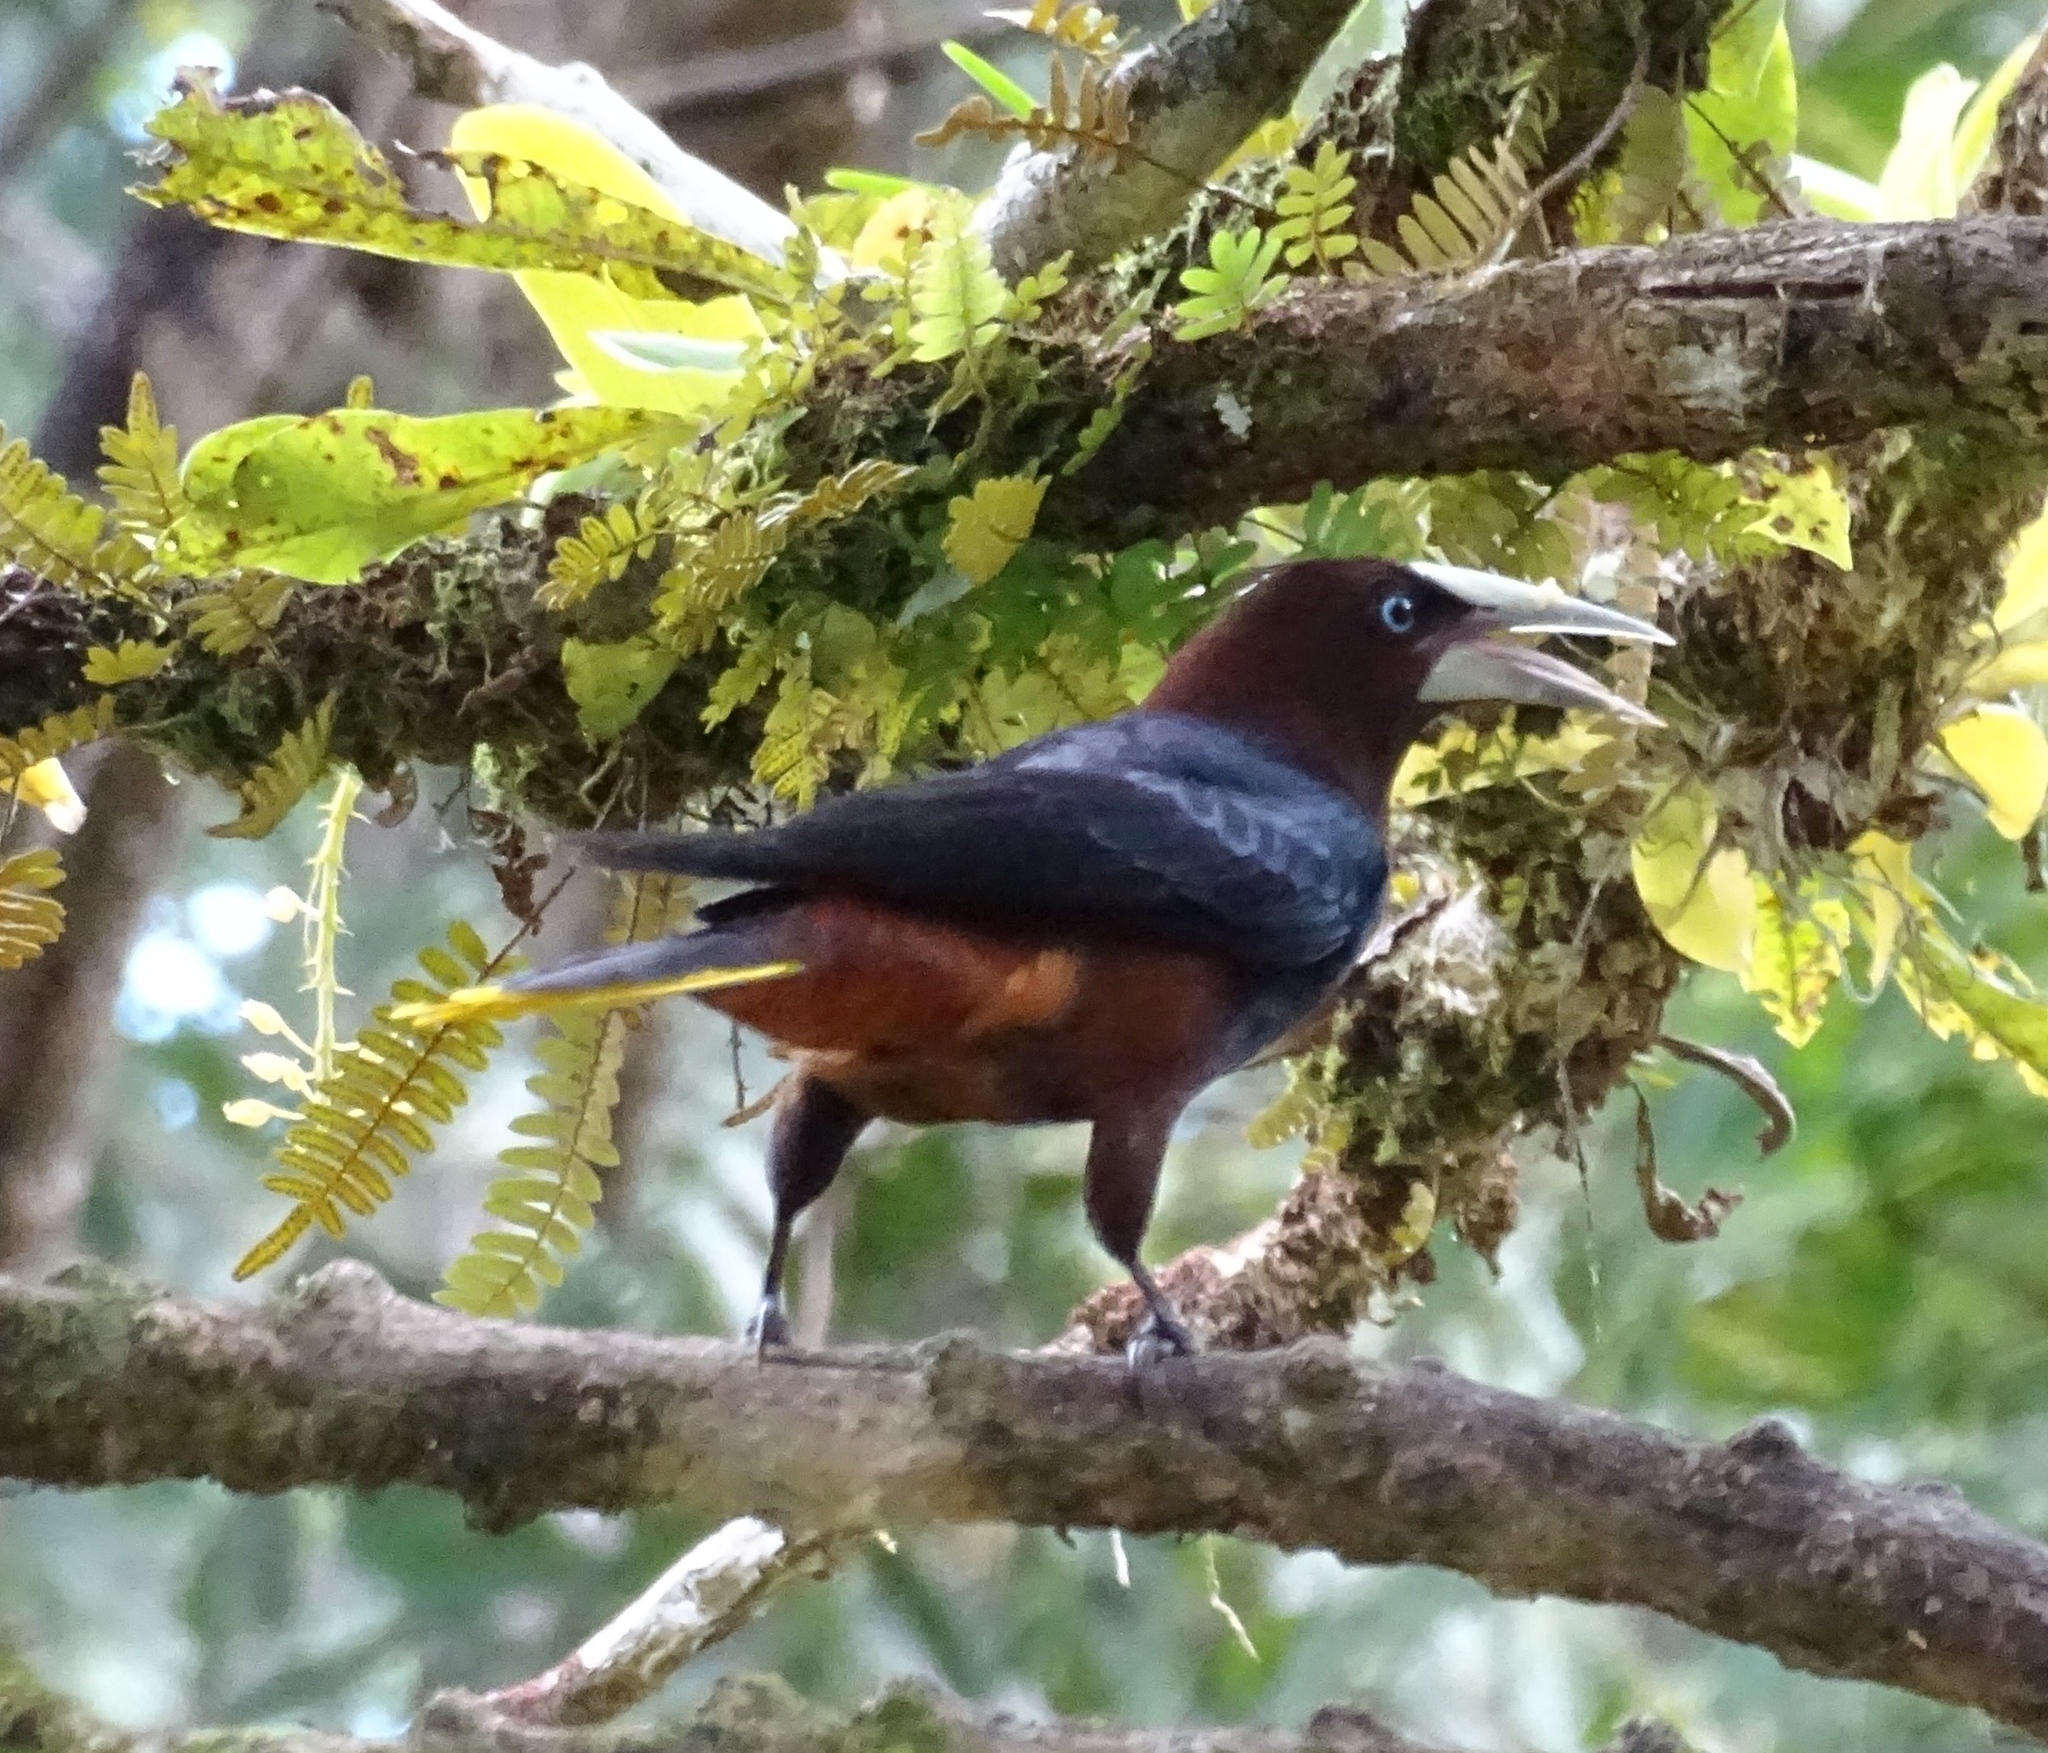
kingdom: Animalia
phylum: Chordata
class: Aves
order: Passeriformes
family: Icteridae
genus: Psarocolius
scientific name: Psarocolius wagleri
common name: Chestnut-headed oropendola
